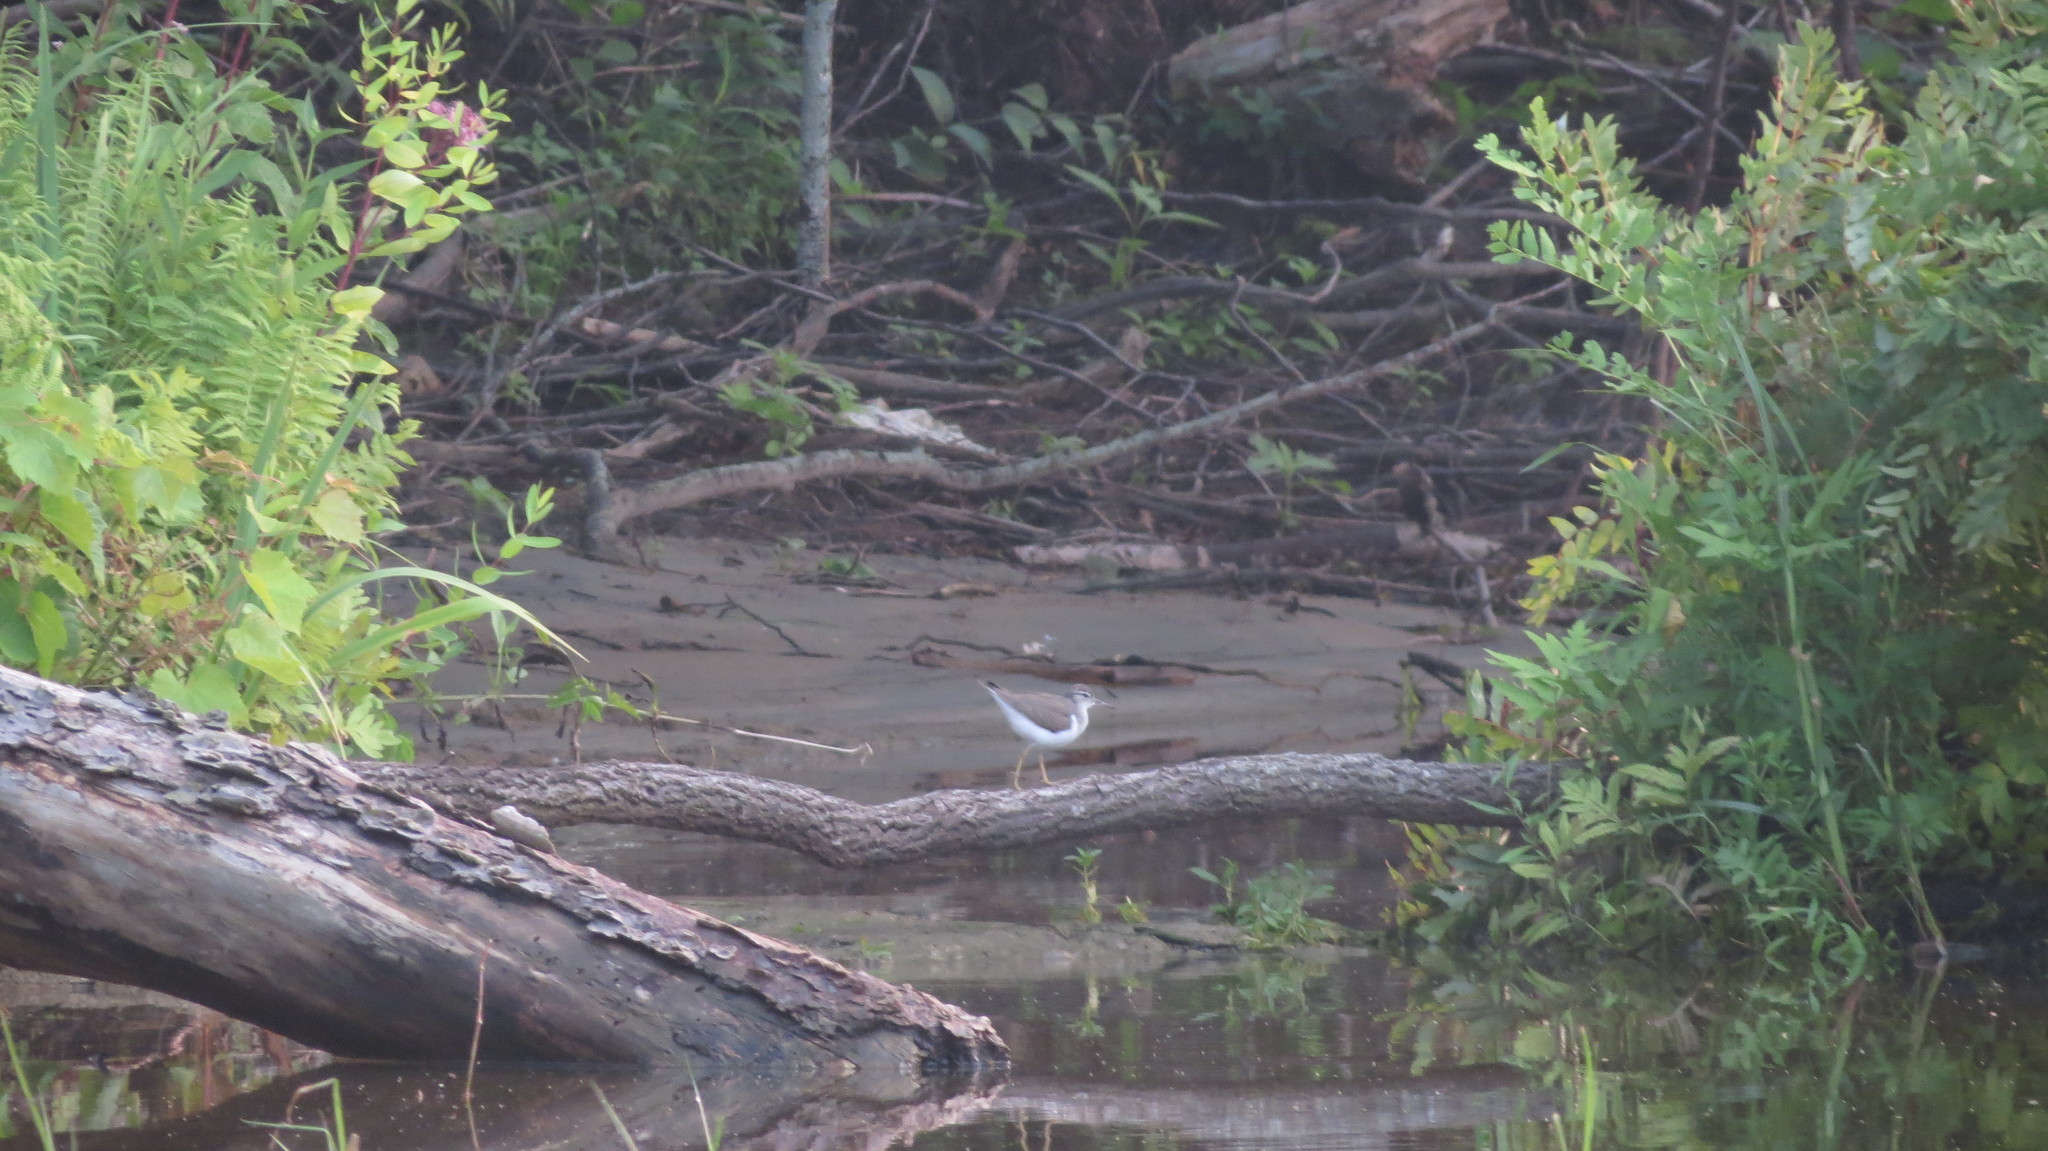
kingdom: Animalia
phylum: Chordata
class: Aves
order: Charadriiformes
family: Scolopacidae
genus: Actitis
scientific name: Actitis macularius
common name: Spotted sandpiper
